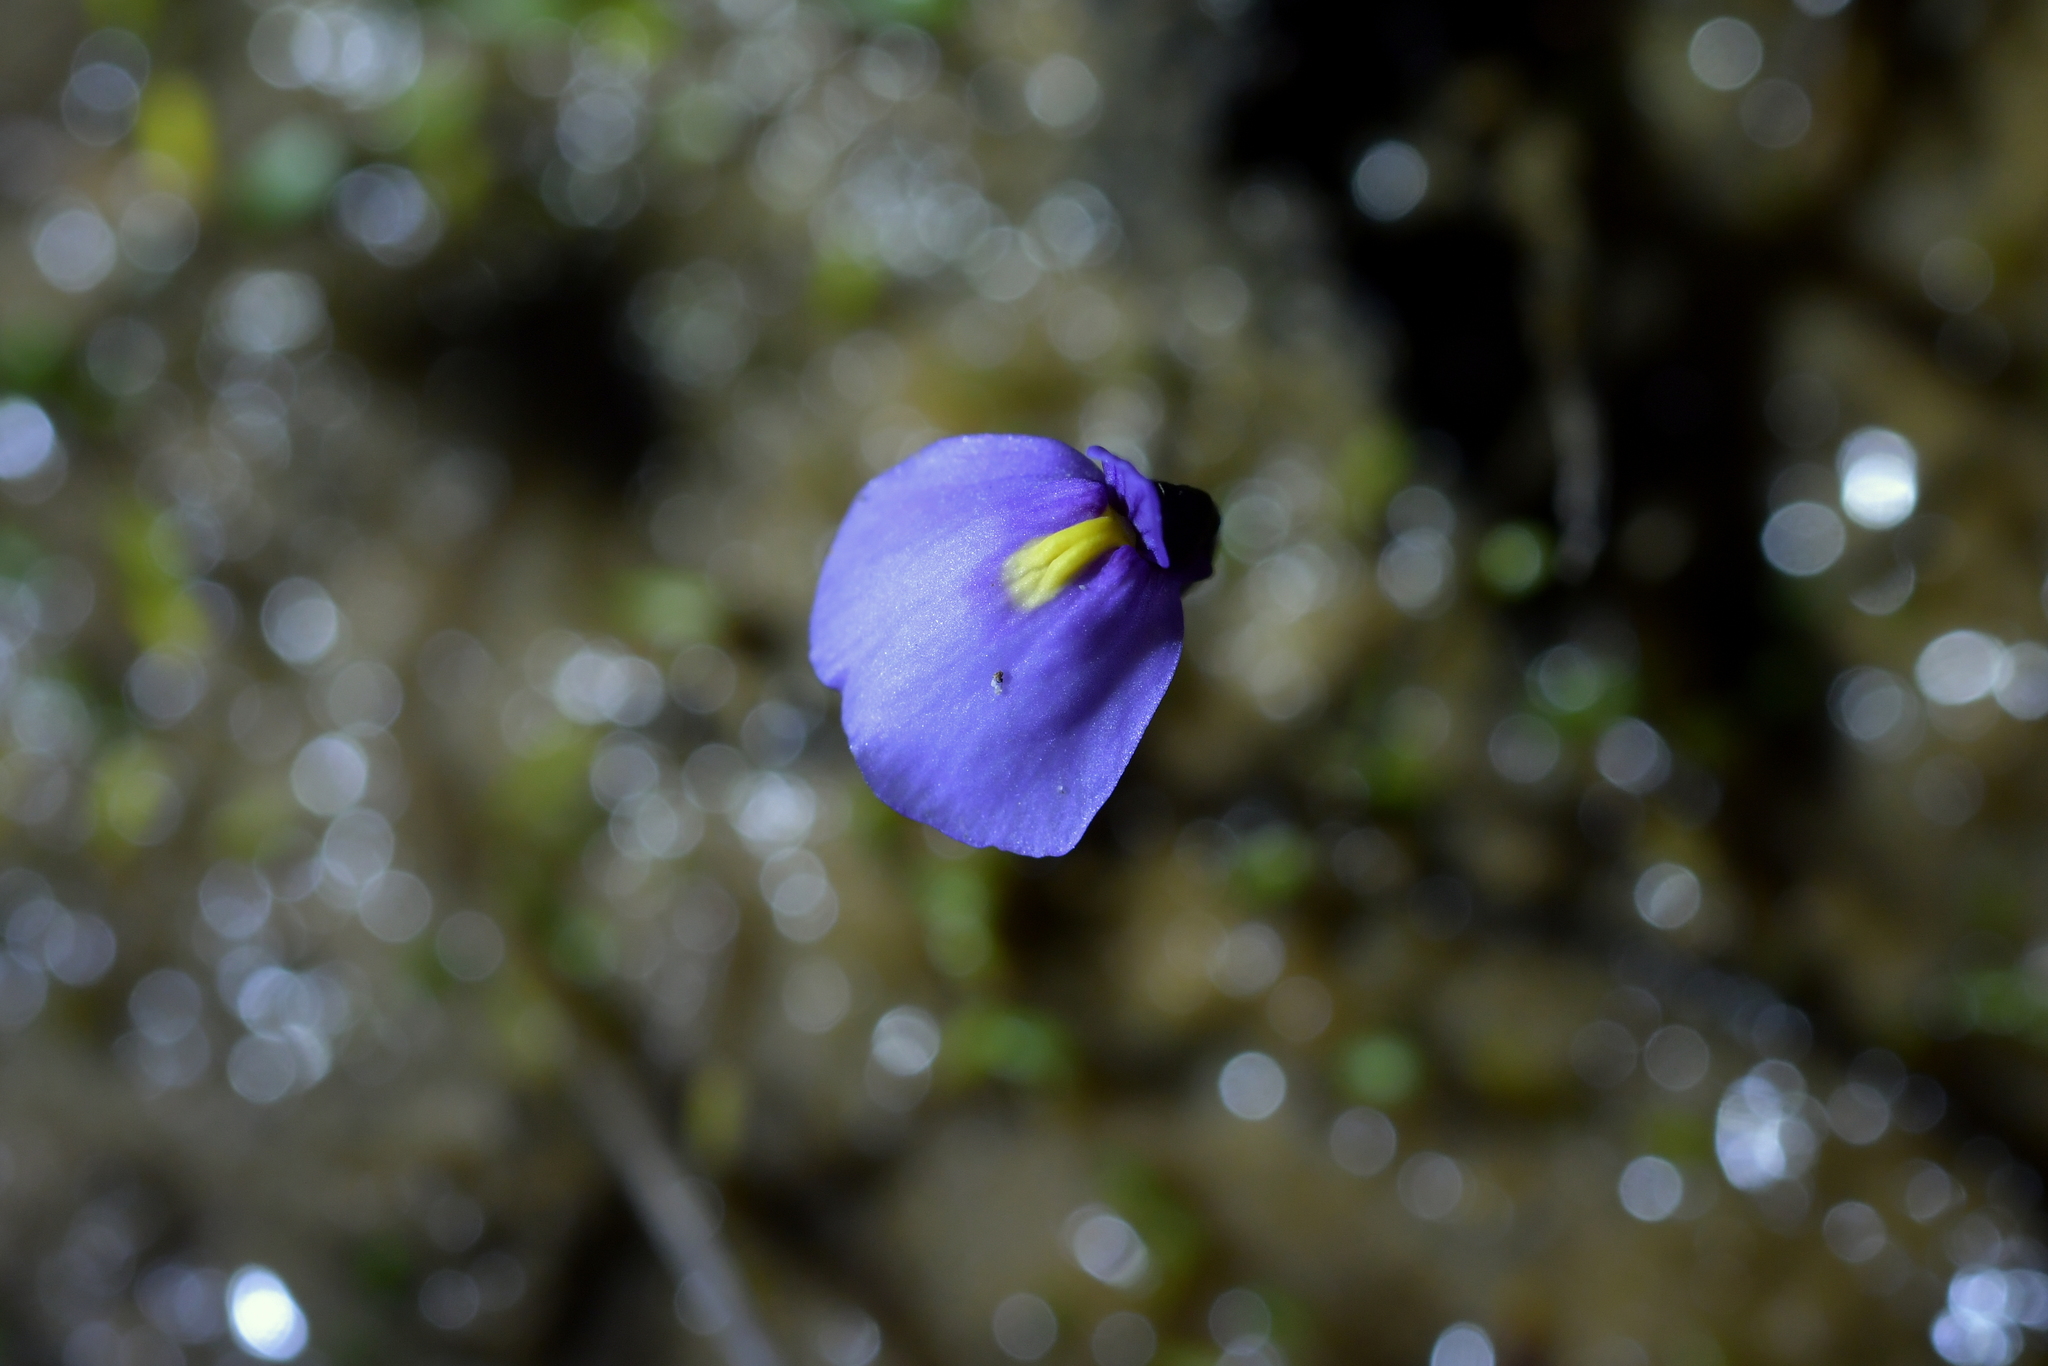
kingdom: Plantae
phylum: Tracheophyta
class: Magnoliopsida
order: Lamiales
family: Lentibulariaceae
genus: Utricularia
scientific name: Utricularia dichotoma
